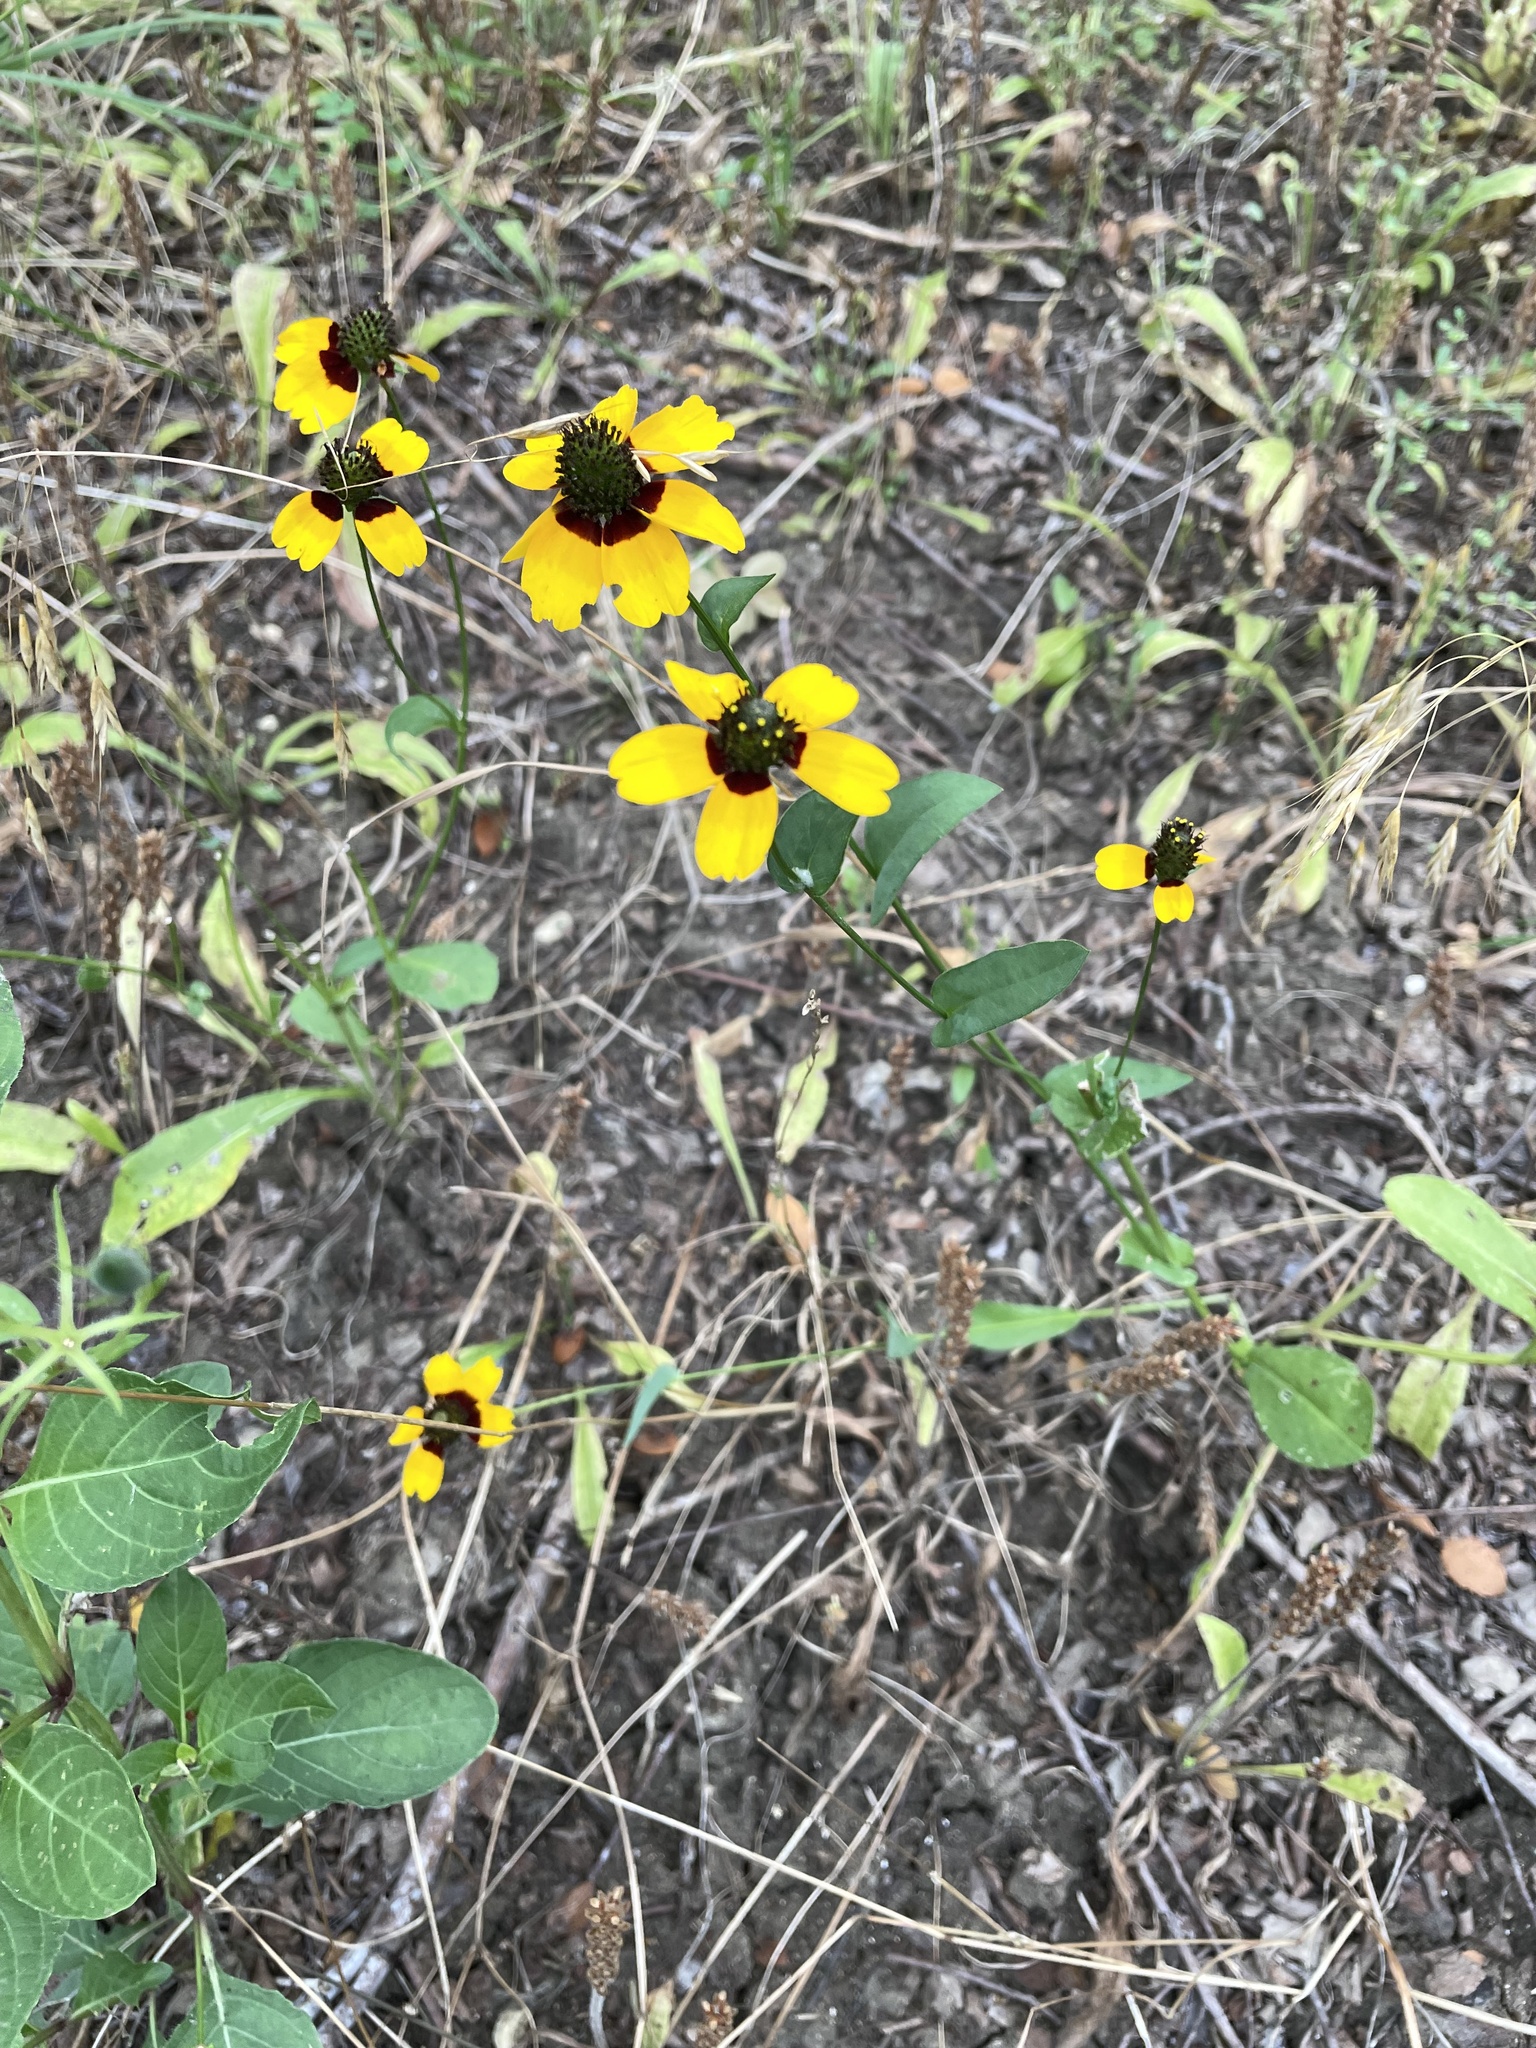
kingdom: Plantae
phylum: Tracheophyta
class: Magnoliopsida
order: Asterales
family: Asteraceae
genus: Rudbeckia
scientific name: Rudbeckia amplexicaulis
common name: Clasping-leaf coneflower
